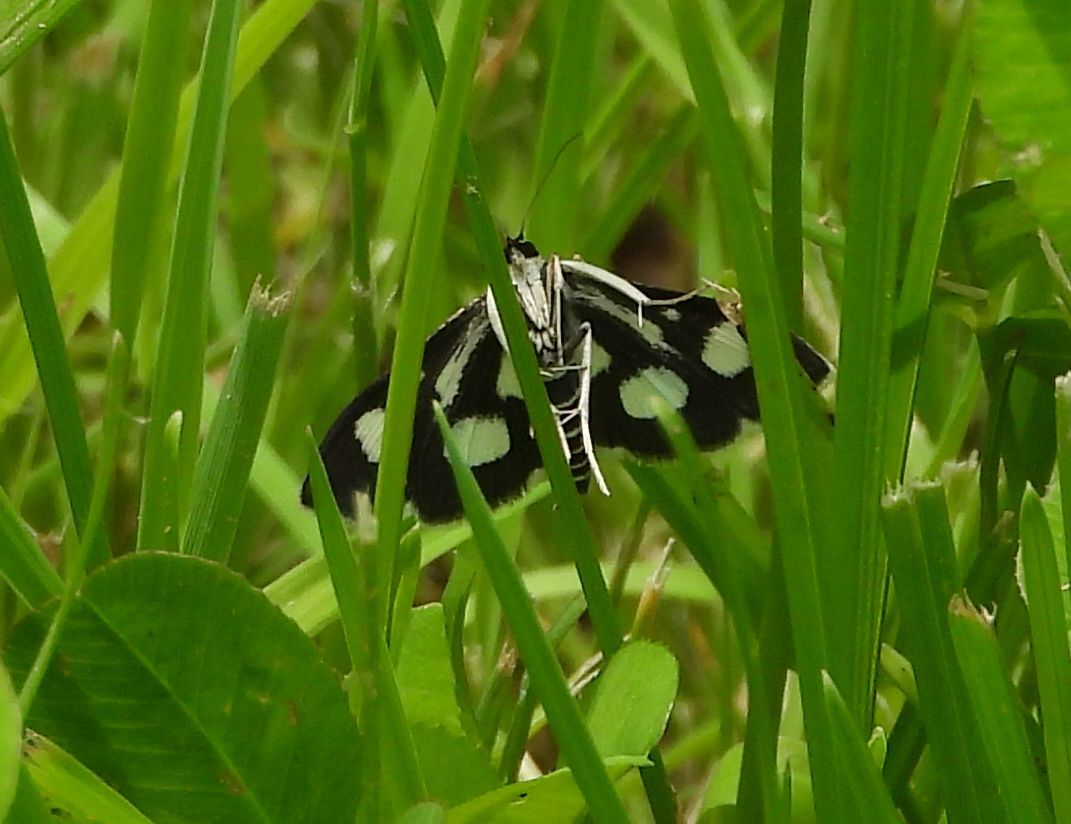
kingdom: Animalia
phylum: Arthropoda
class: Insecta
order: Lepidoptera
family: Crambidae
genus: Anania
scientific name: Anania funebris
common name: White-spotted sable moth
